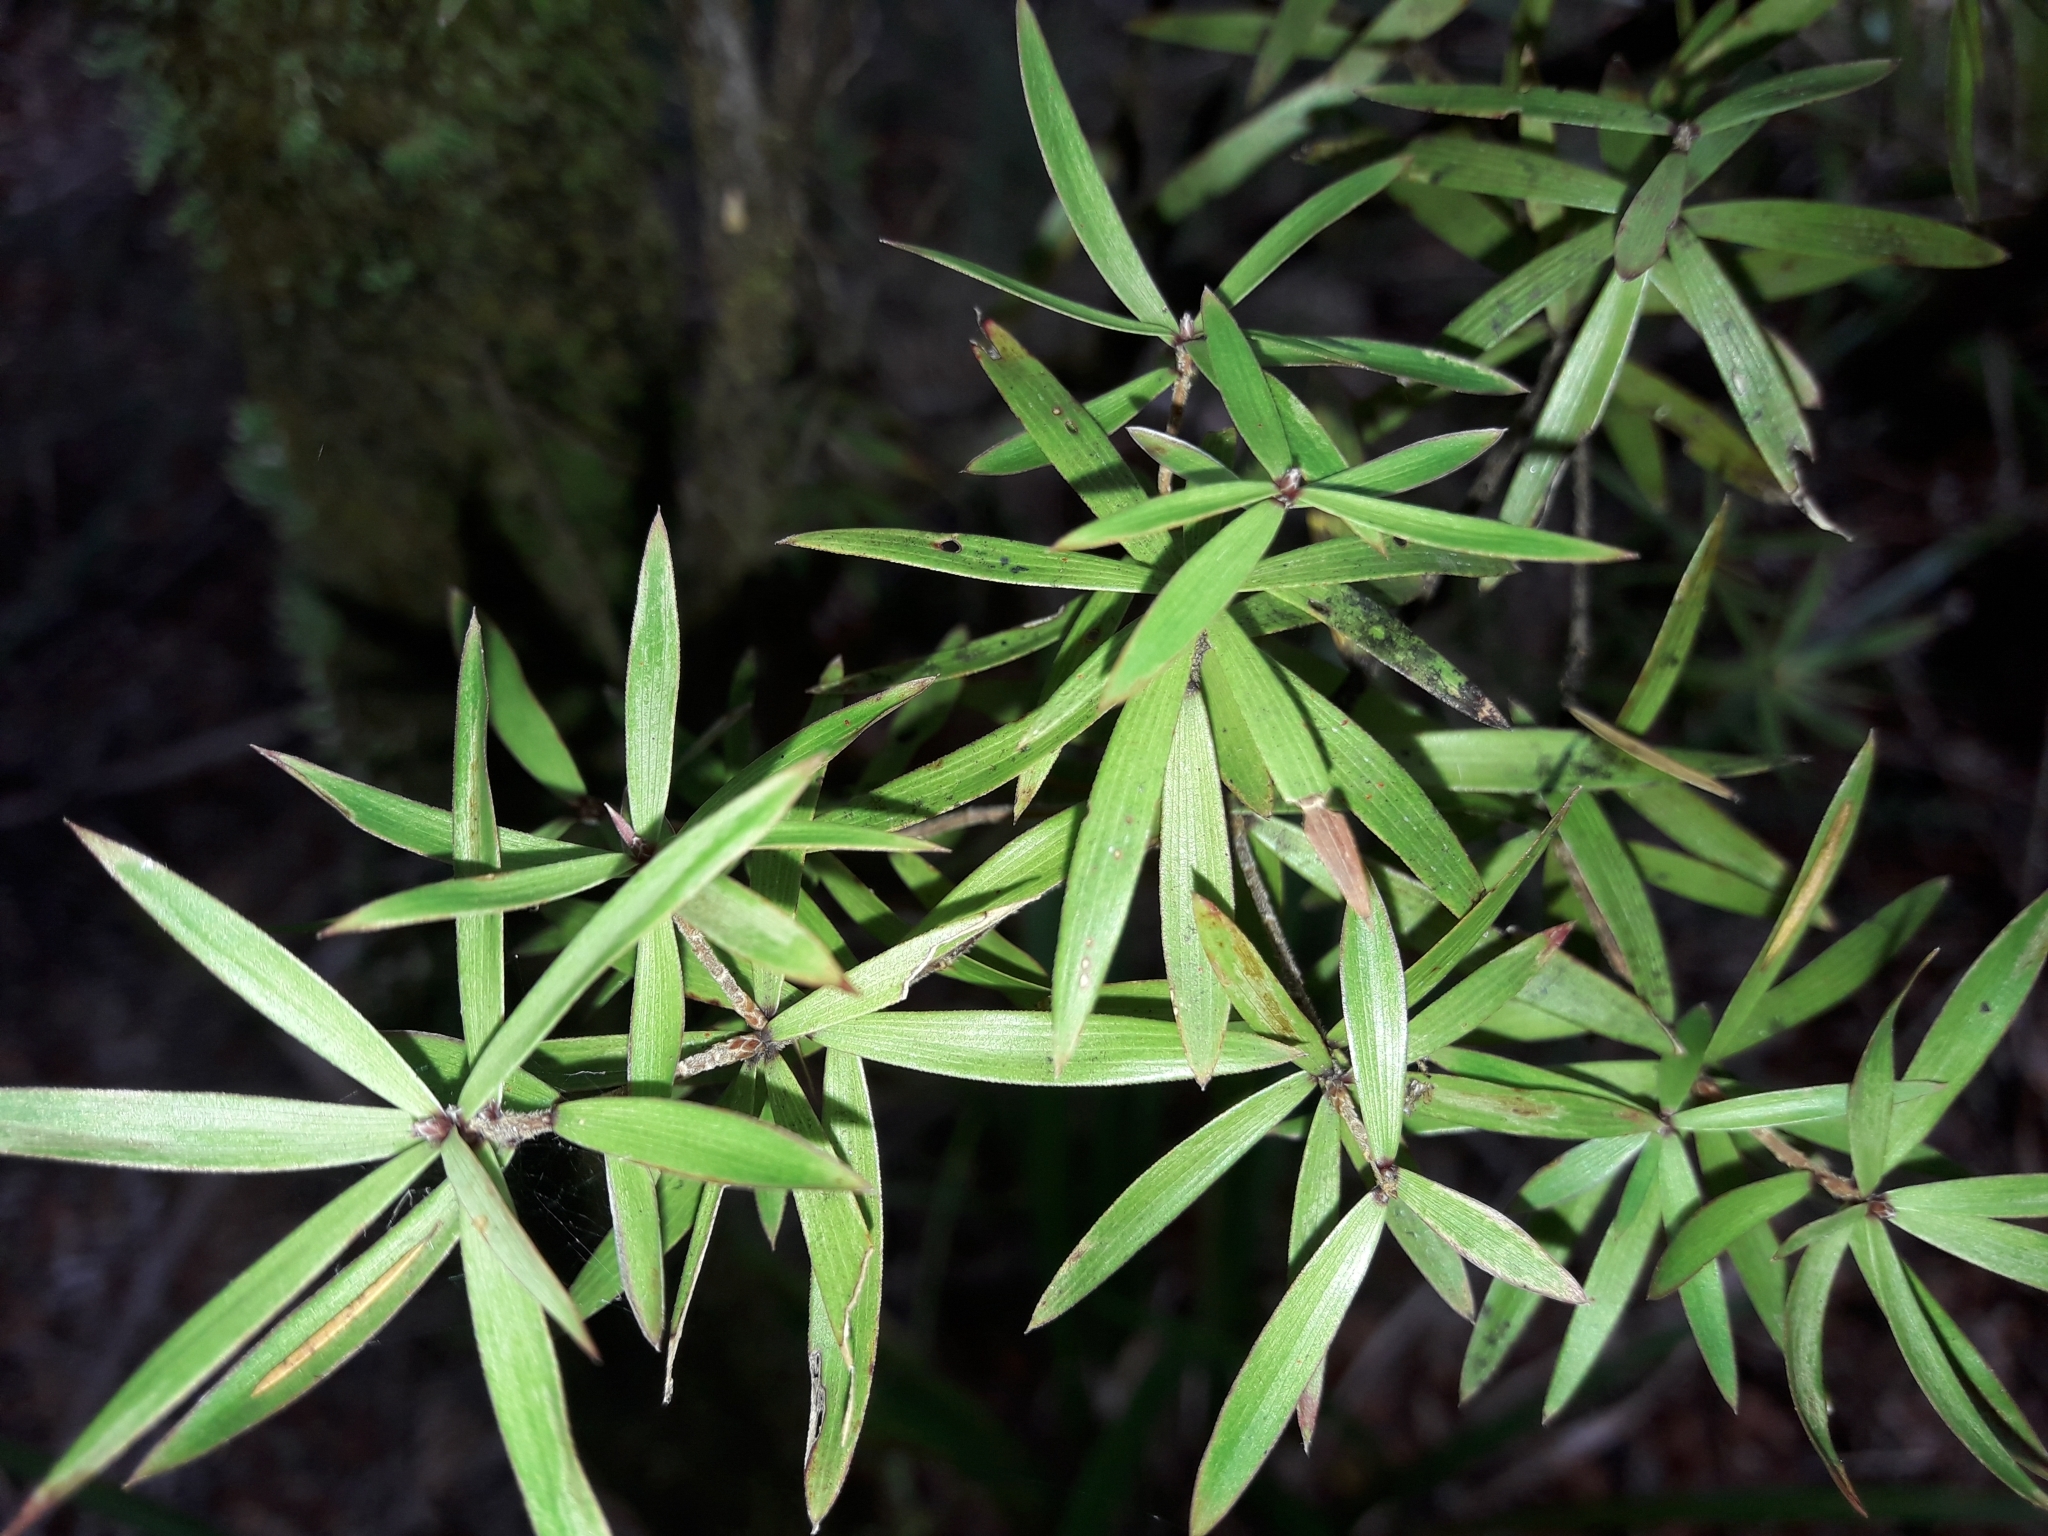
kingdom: Plantae
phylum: Tracheophyta
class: Magnoliopsida
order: Ericales
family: Ericaceae
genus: Leucopogon
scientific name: Leucopogon fasciculatus
